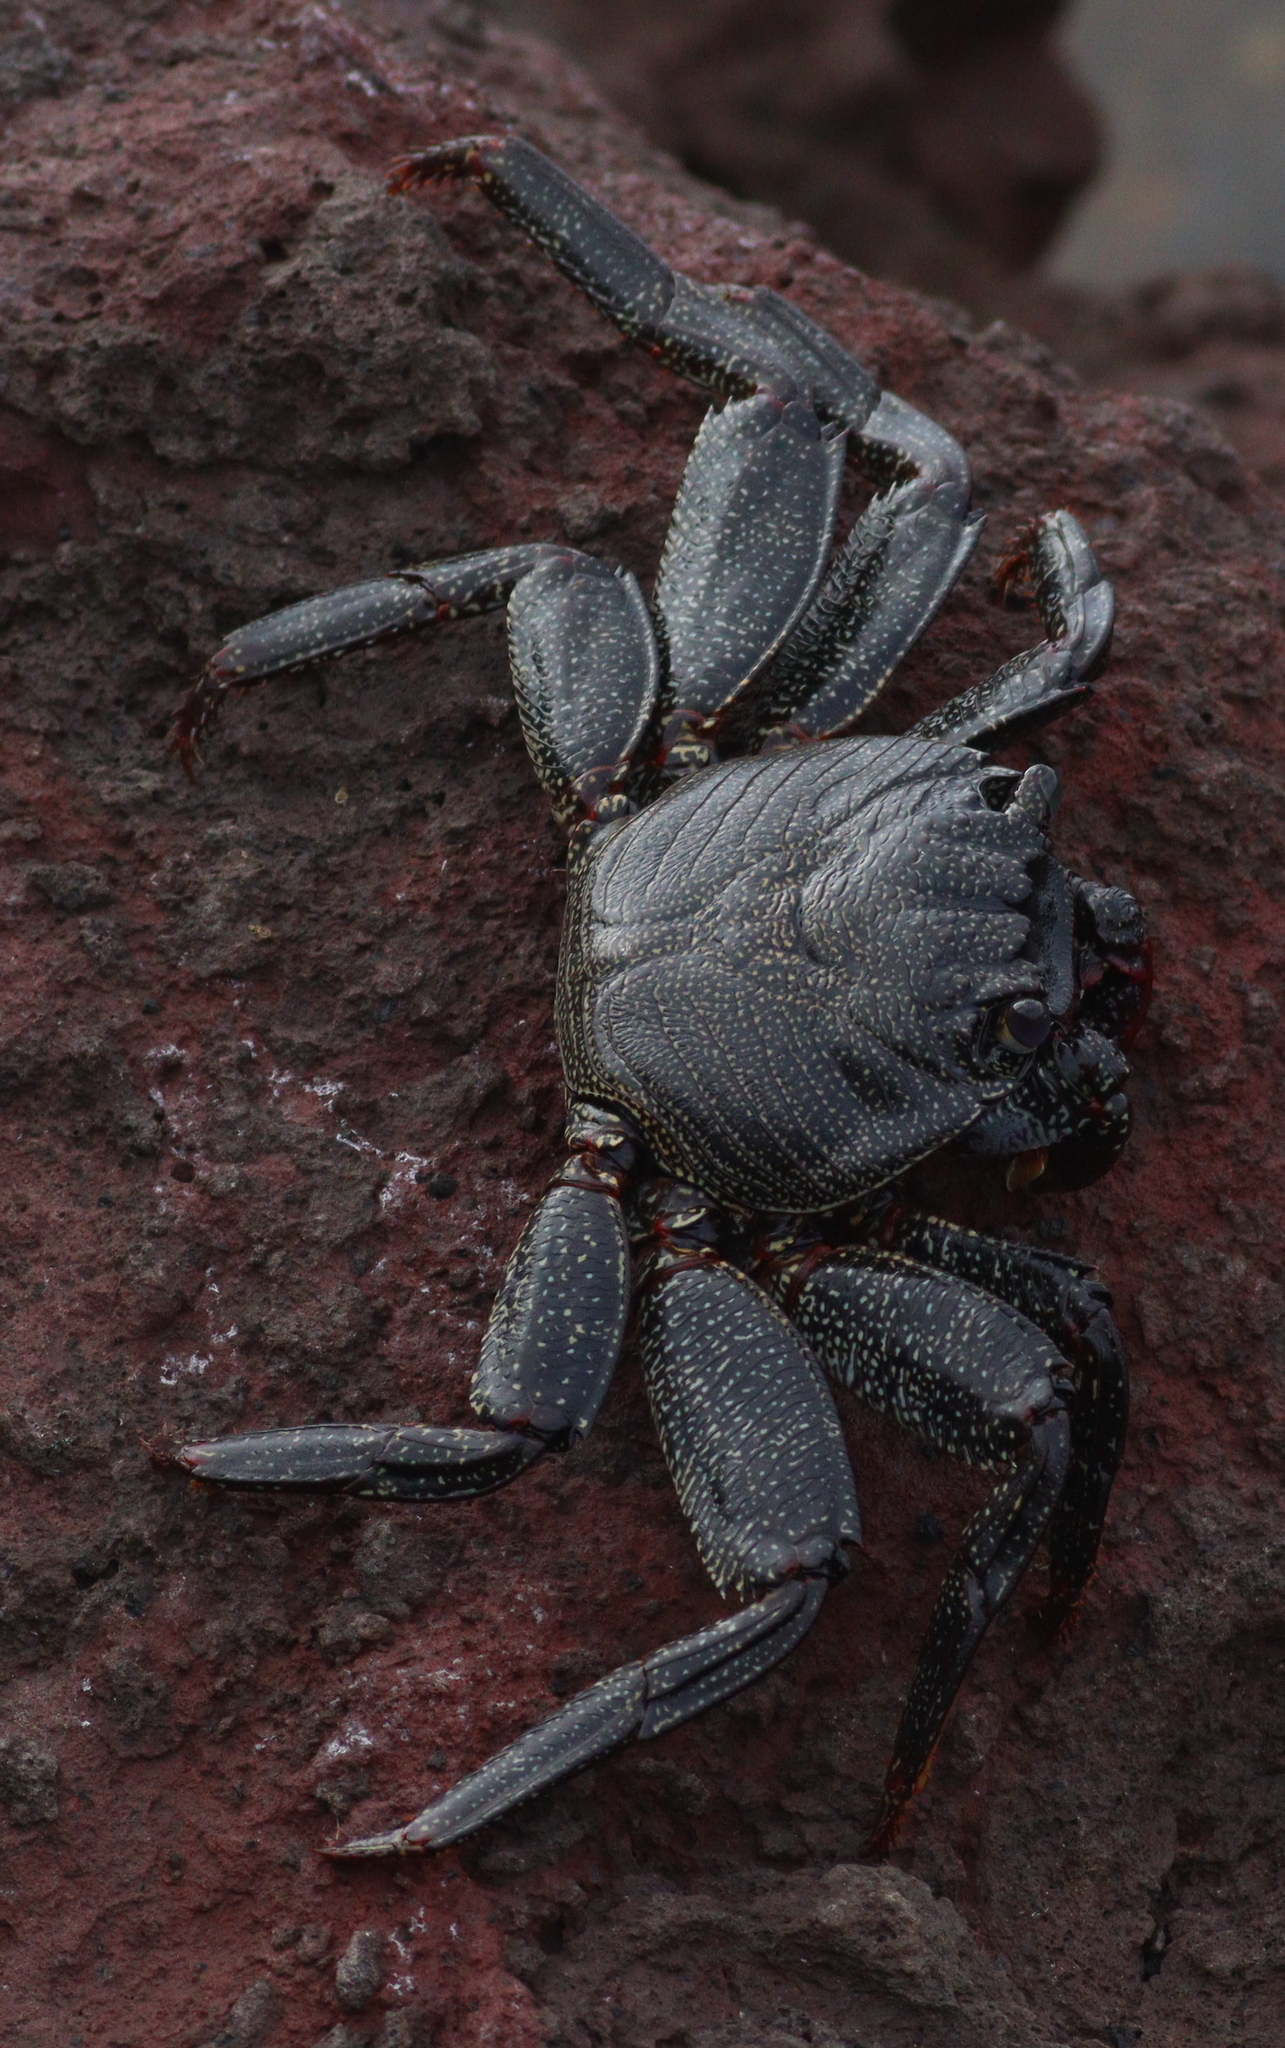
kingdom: Animalia
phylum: Arthropoda
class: Malacostraca
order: Decapoda
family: Grapsidae
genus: Grapsus
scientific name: Grapsus adscensionis
